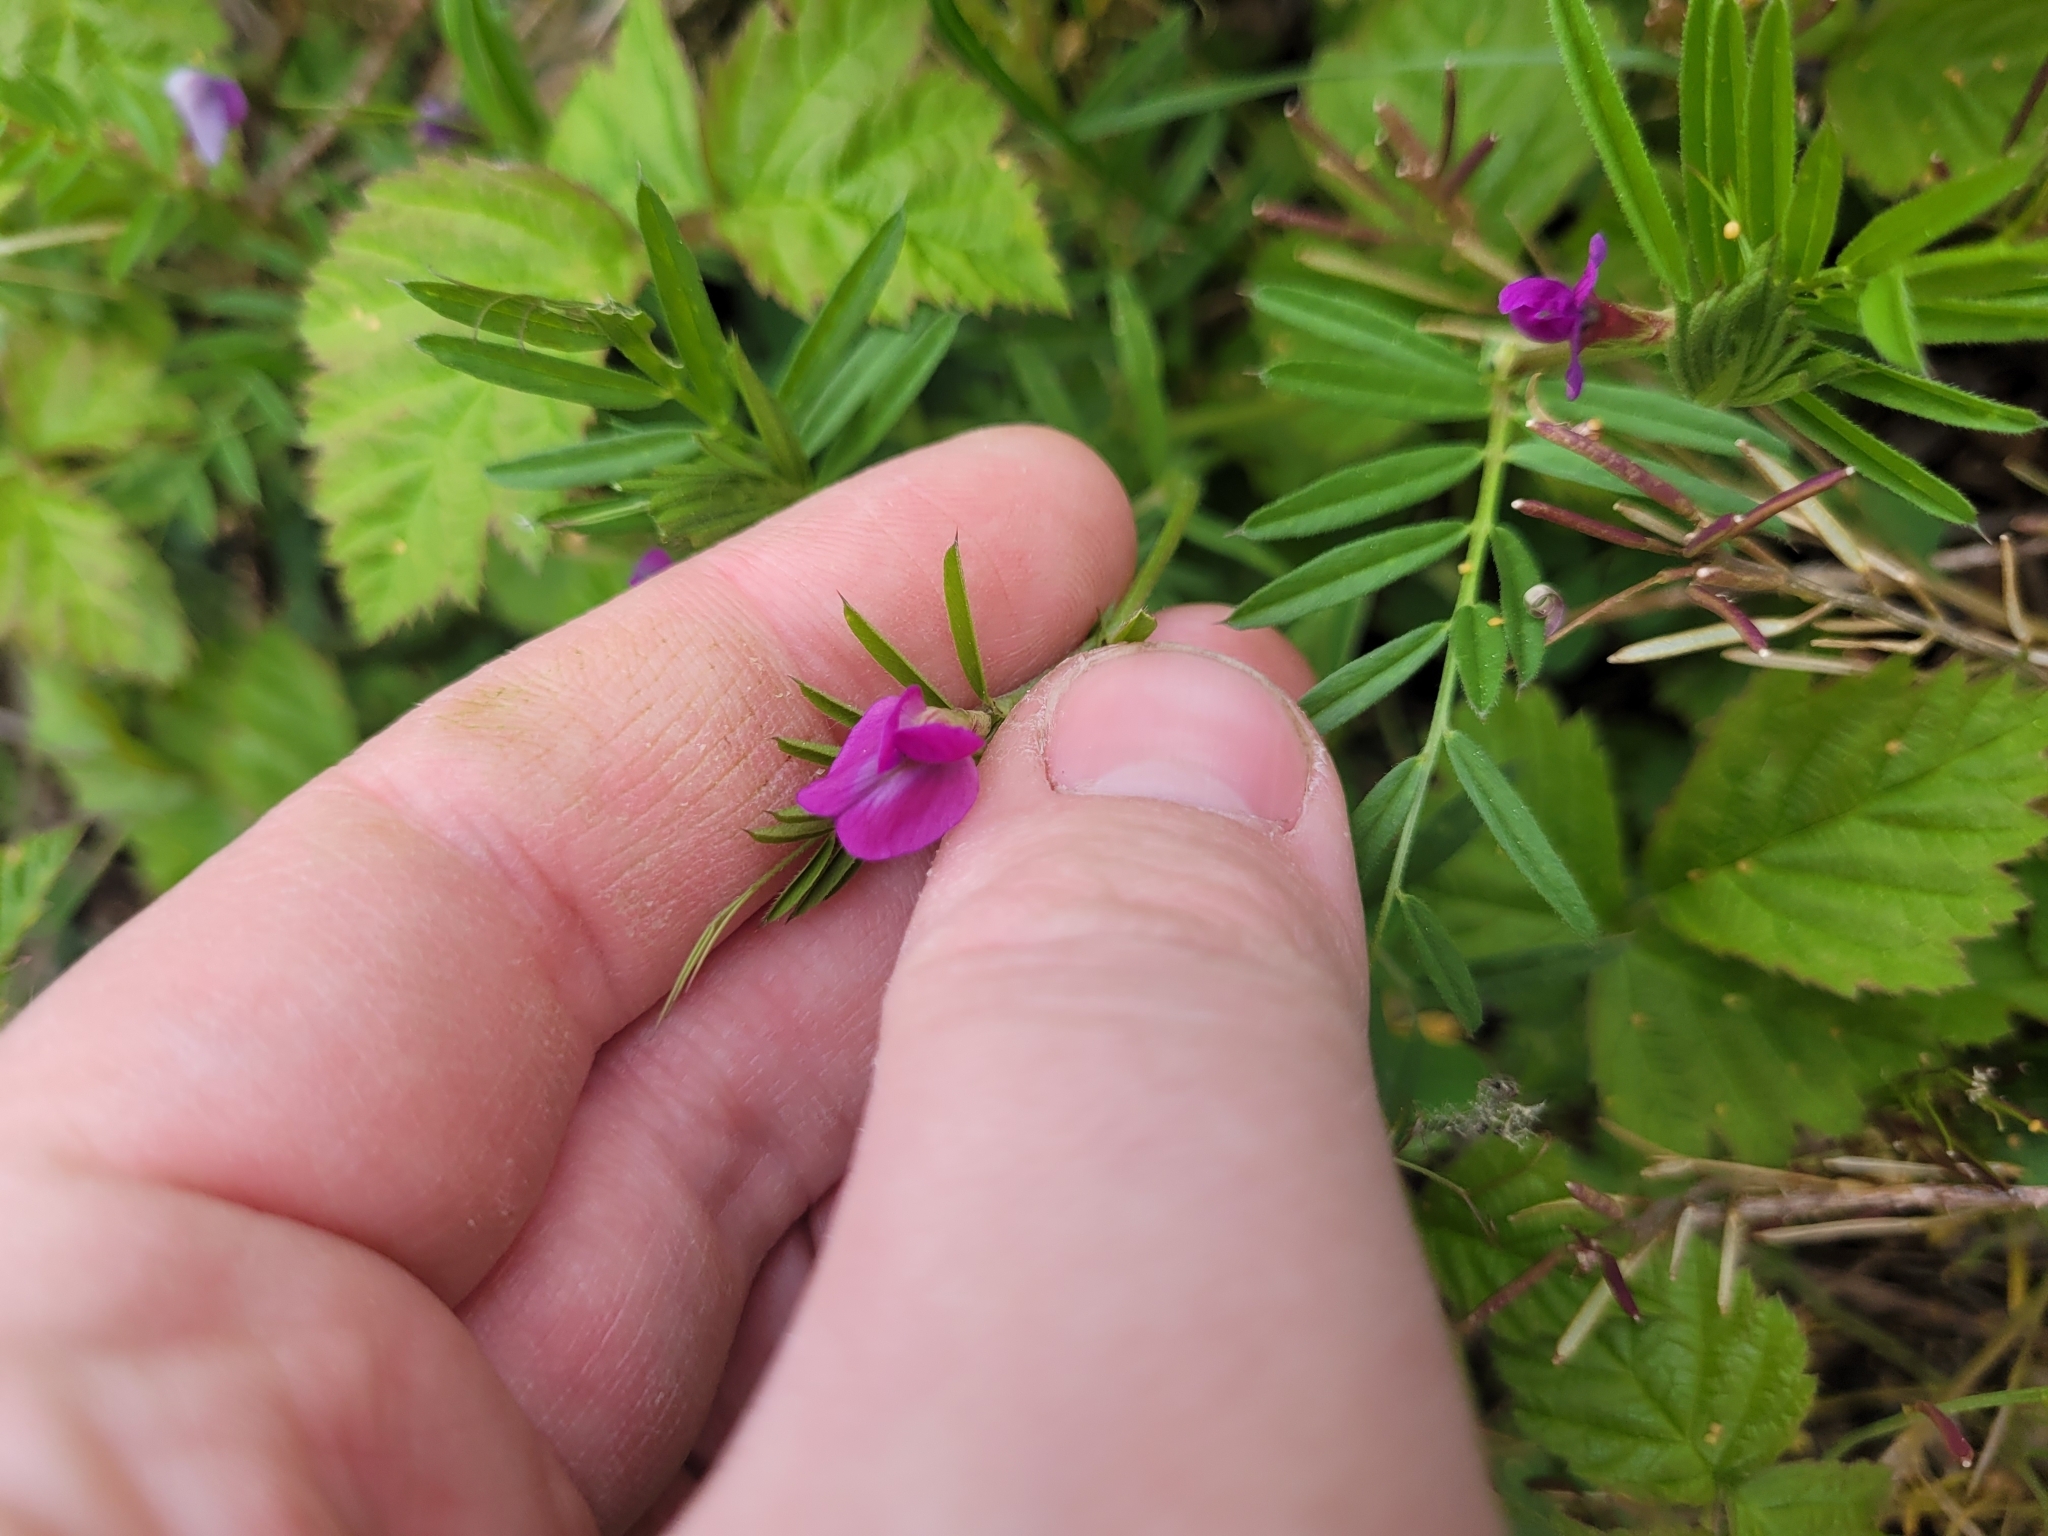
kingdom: Plantae
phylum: Tracheophyta
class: Magnoliopsida
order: Fabales
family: Fabaceae
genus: Vicia
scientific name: Vicia sativa
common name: Garden vetch
